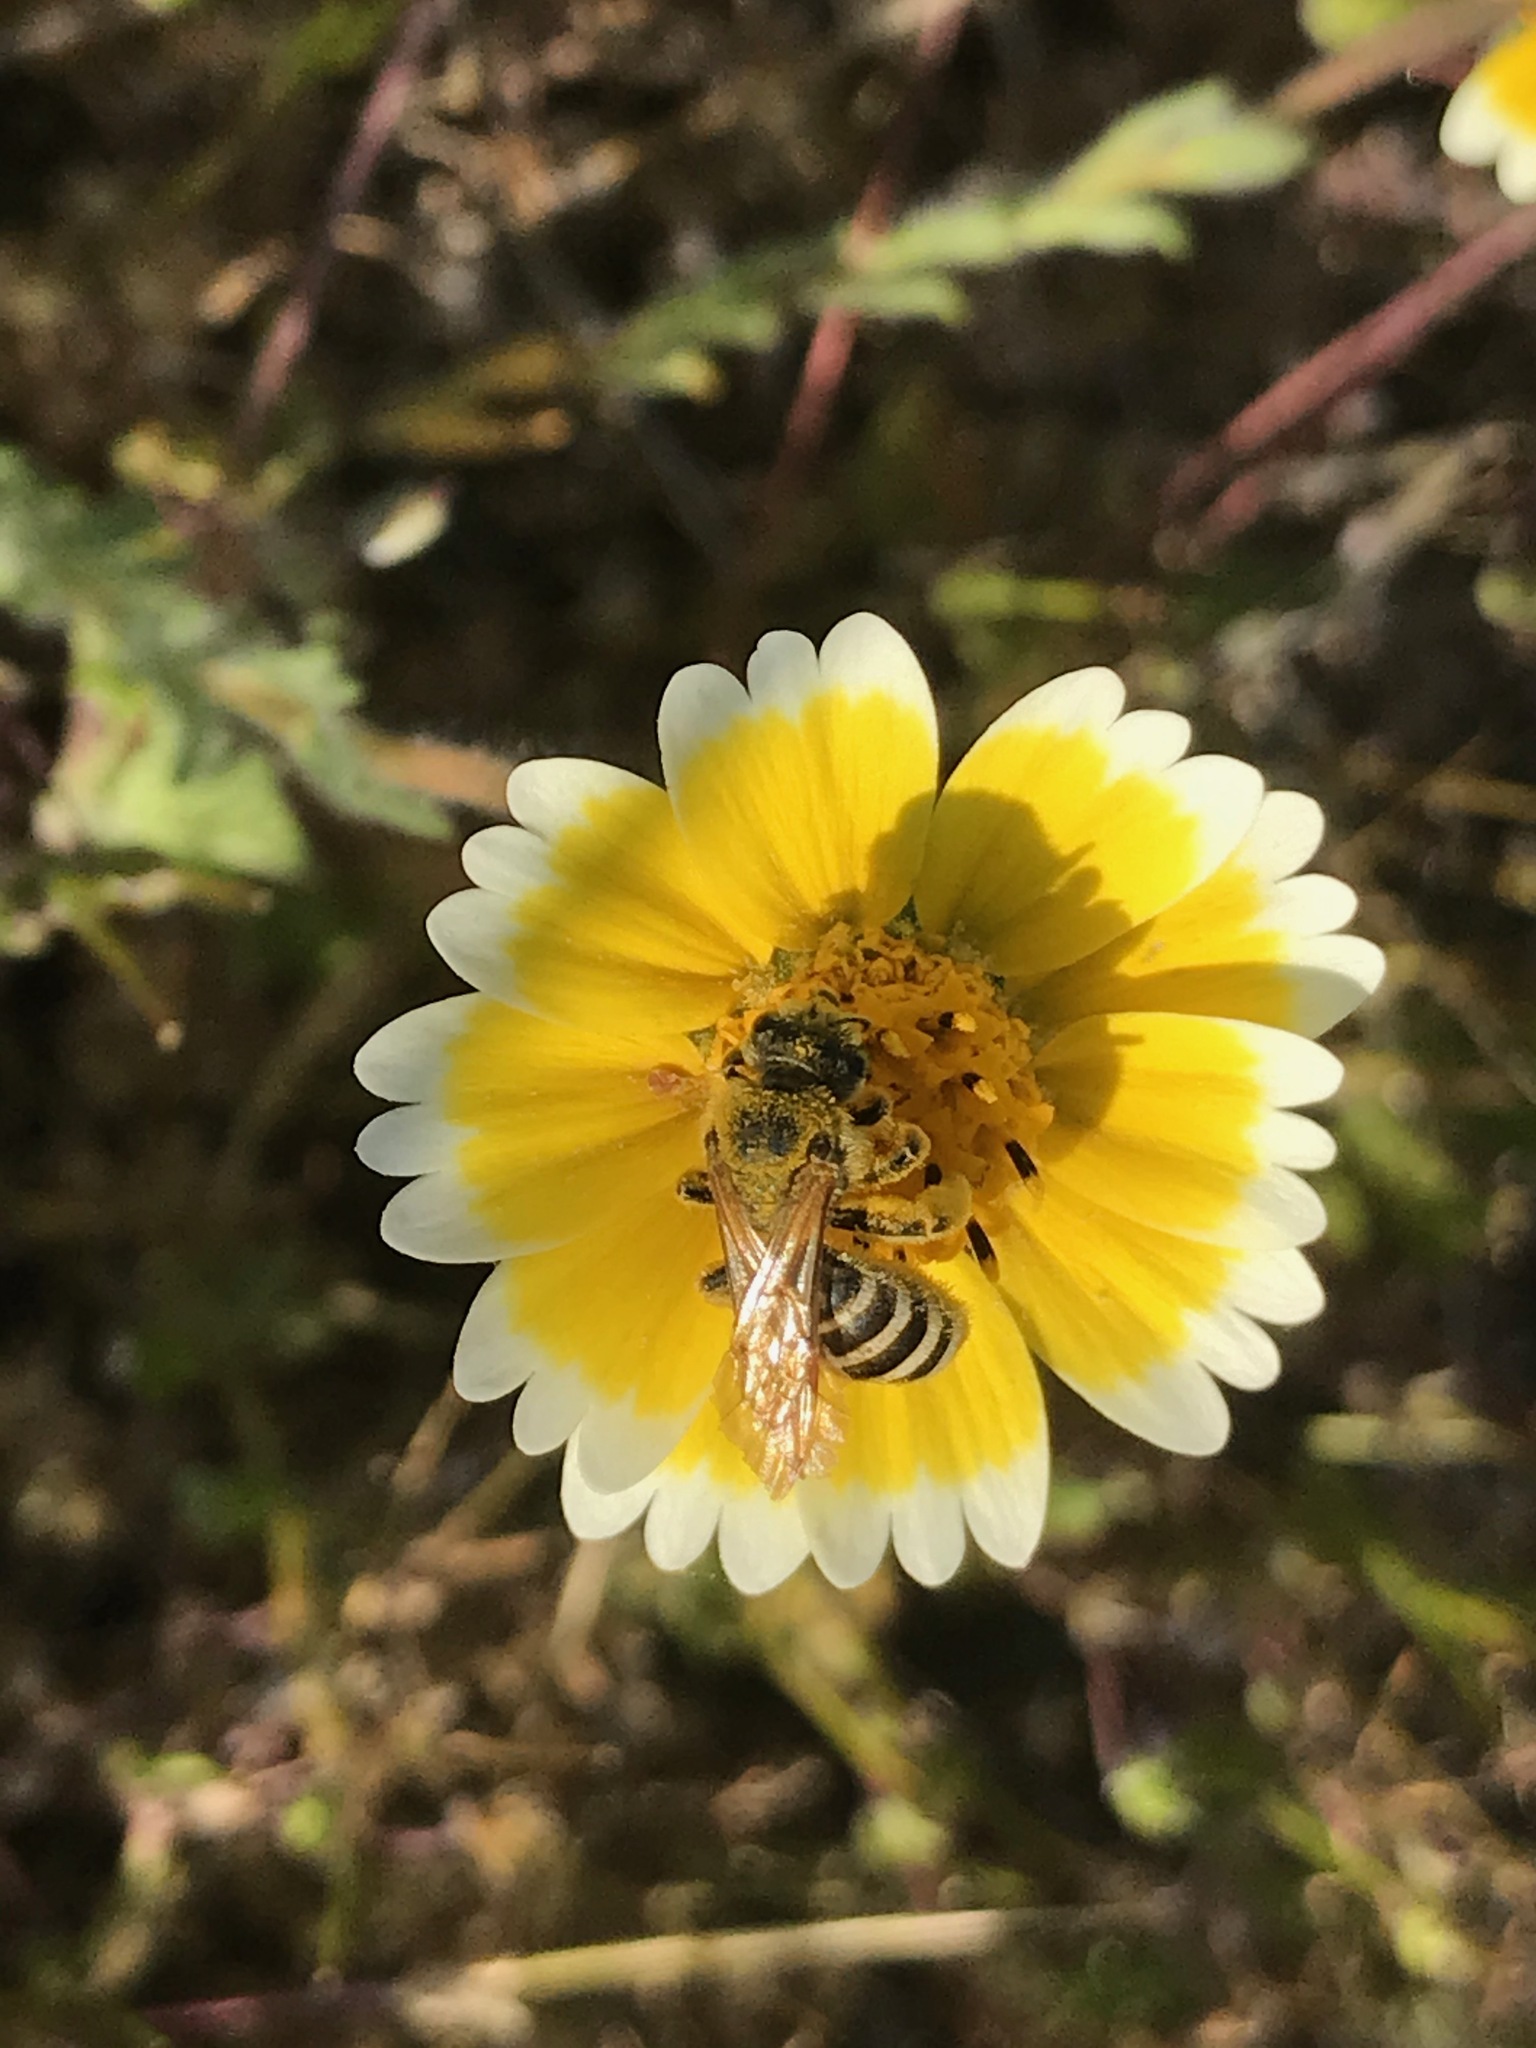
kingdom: Animalia
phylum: Arthropoda
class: Insecta
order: Hymenoptera
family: Halictidae
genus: Halictus
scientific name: Halictus farinosus
